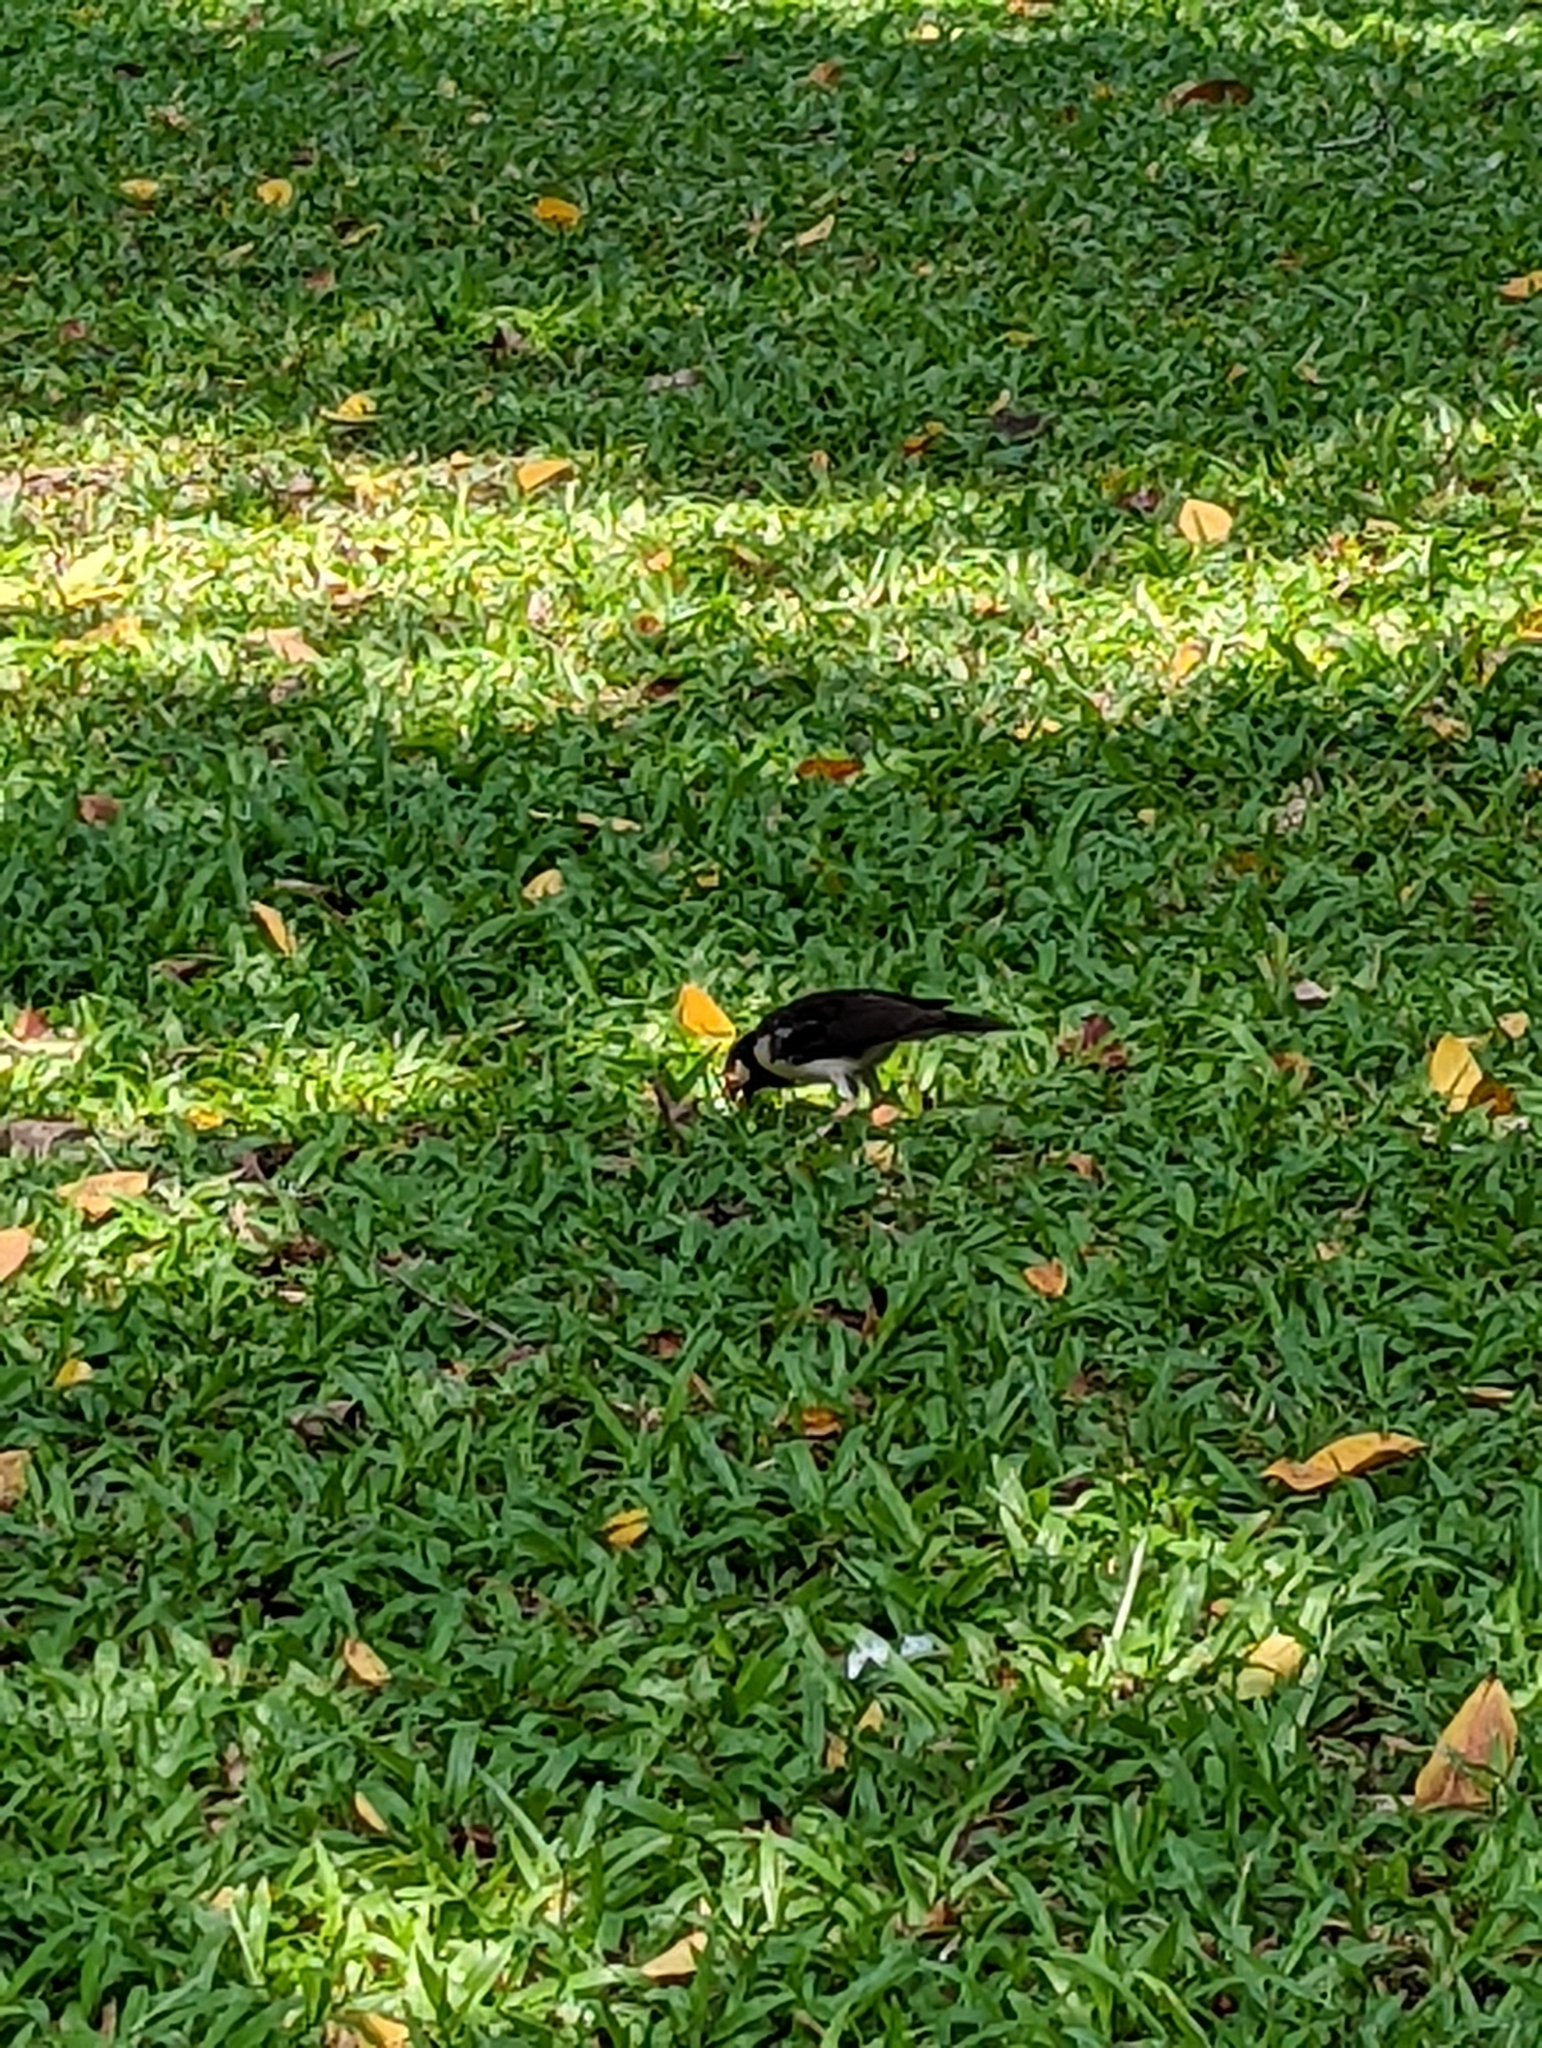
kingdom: Animalia
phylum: Chordata
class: Aves
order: Passeriformes
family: Sturnidae
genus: Gracupica
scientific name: Gracupica contra
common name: Pied myna
